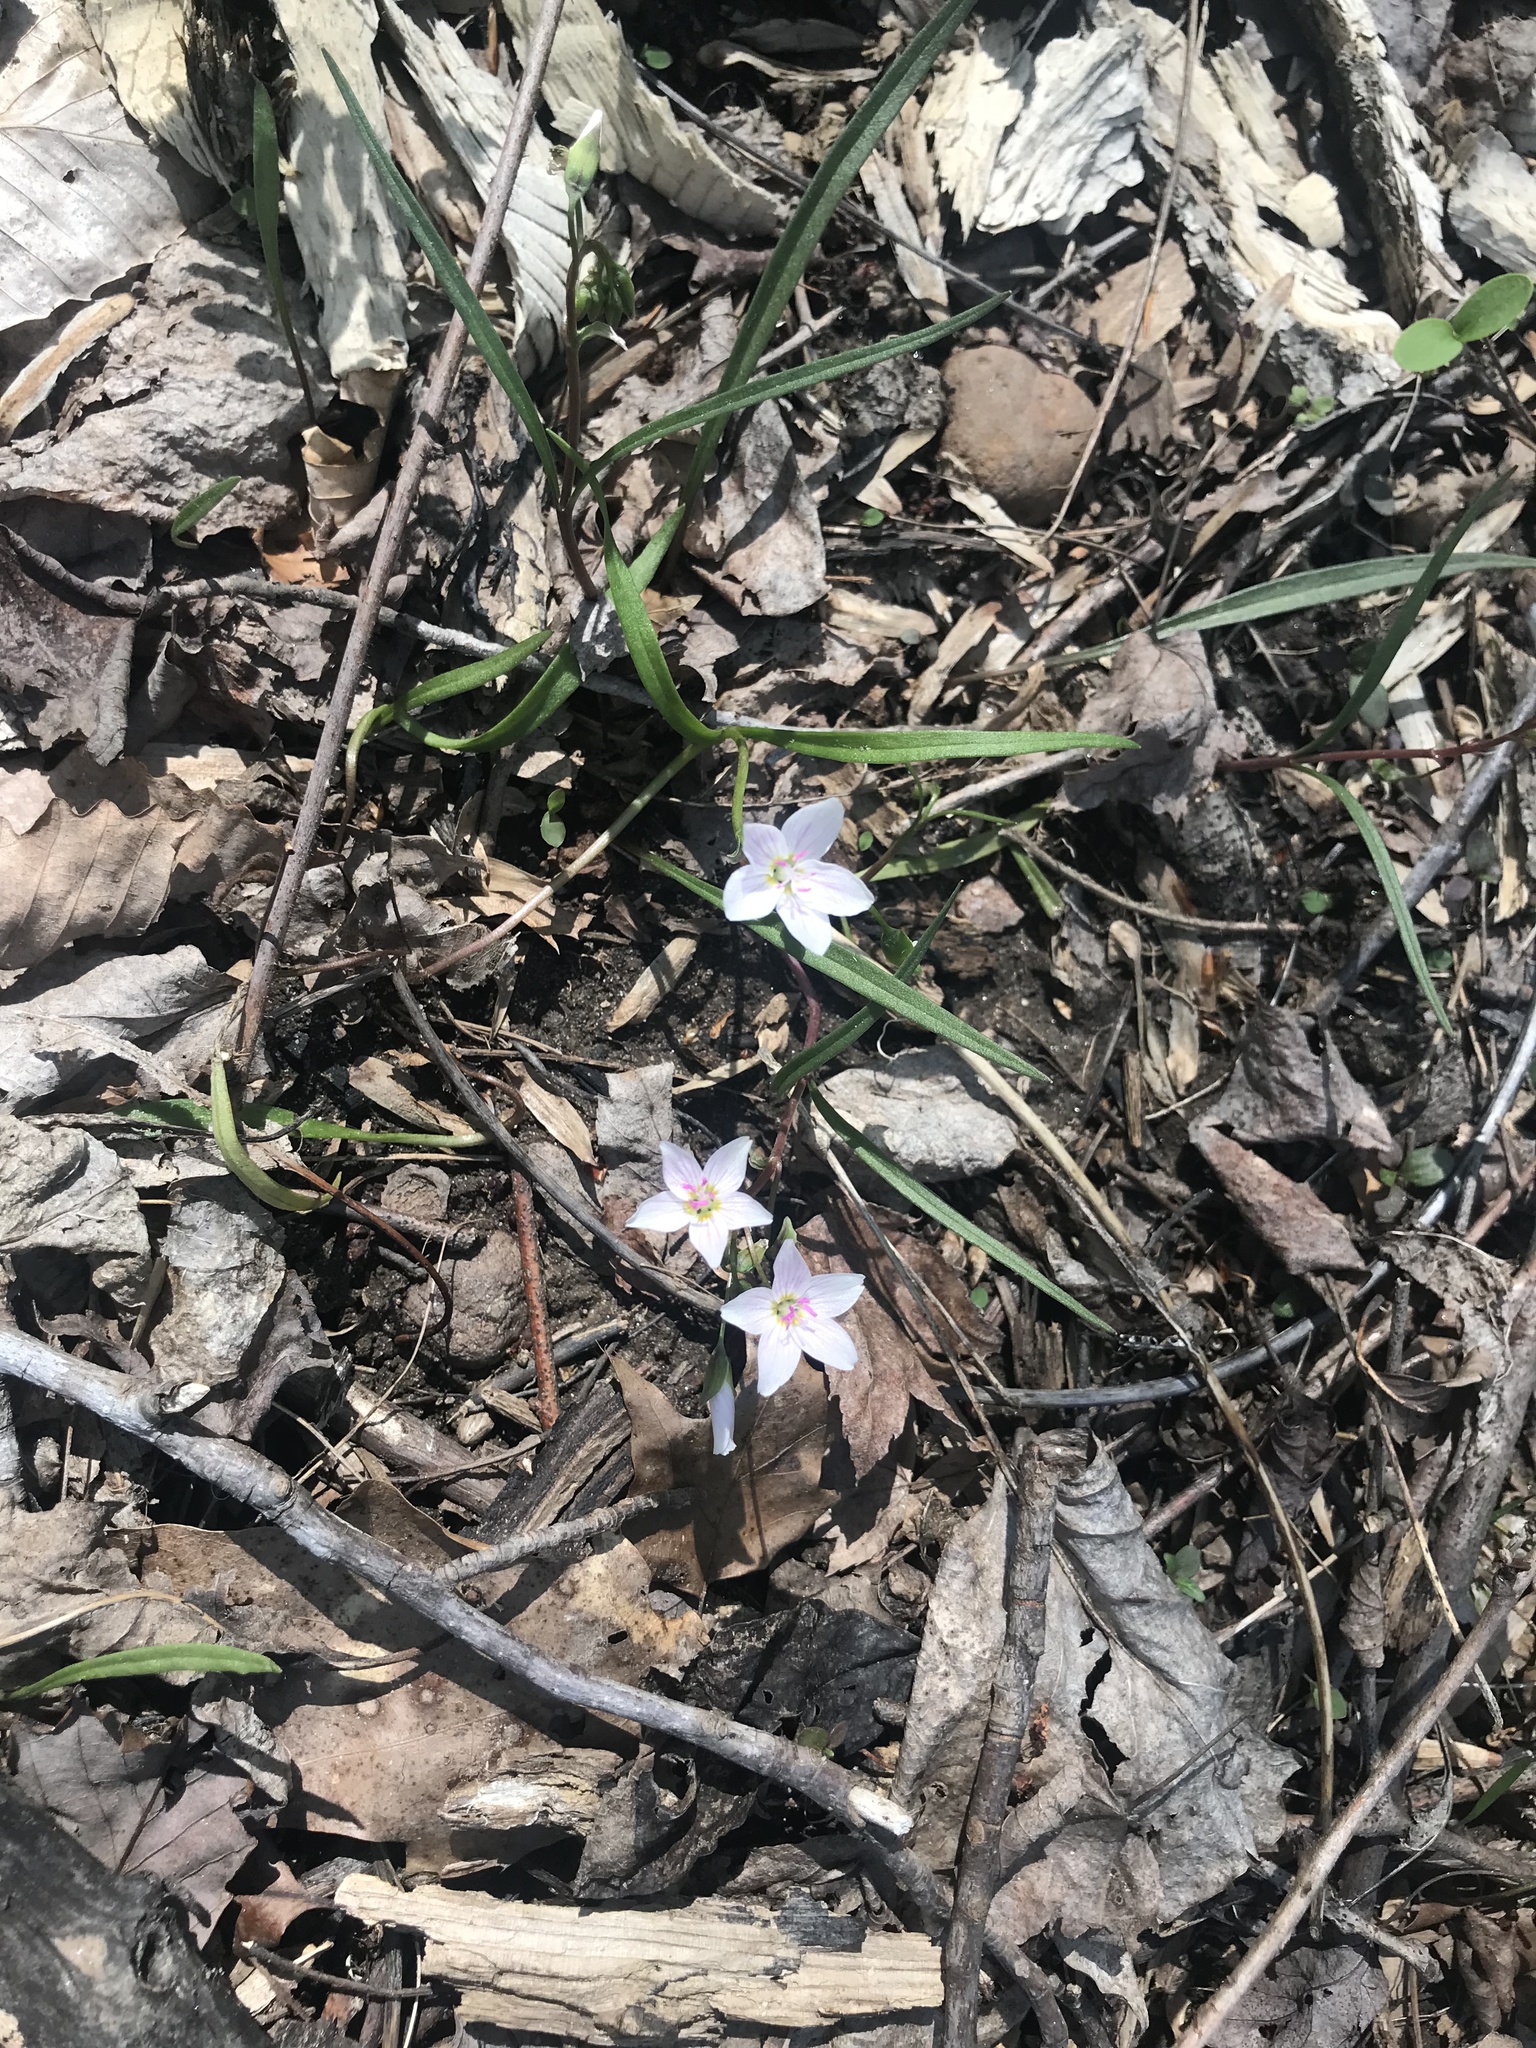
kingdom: Plantae
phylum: Tracheophyta
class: Magnoliopsida
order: Caryophyllales
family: Montiaceae
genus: Claytonia
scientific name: Claytonia virginica
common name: Virginia springbeauty
